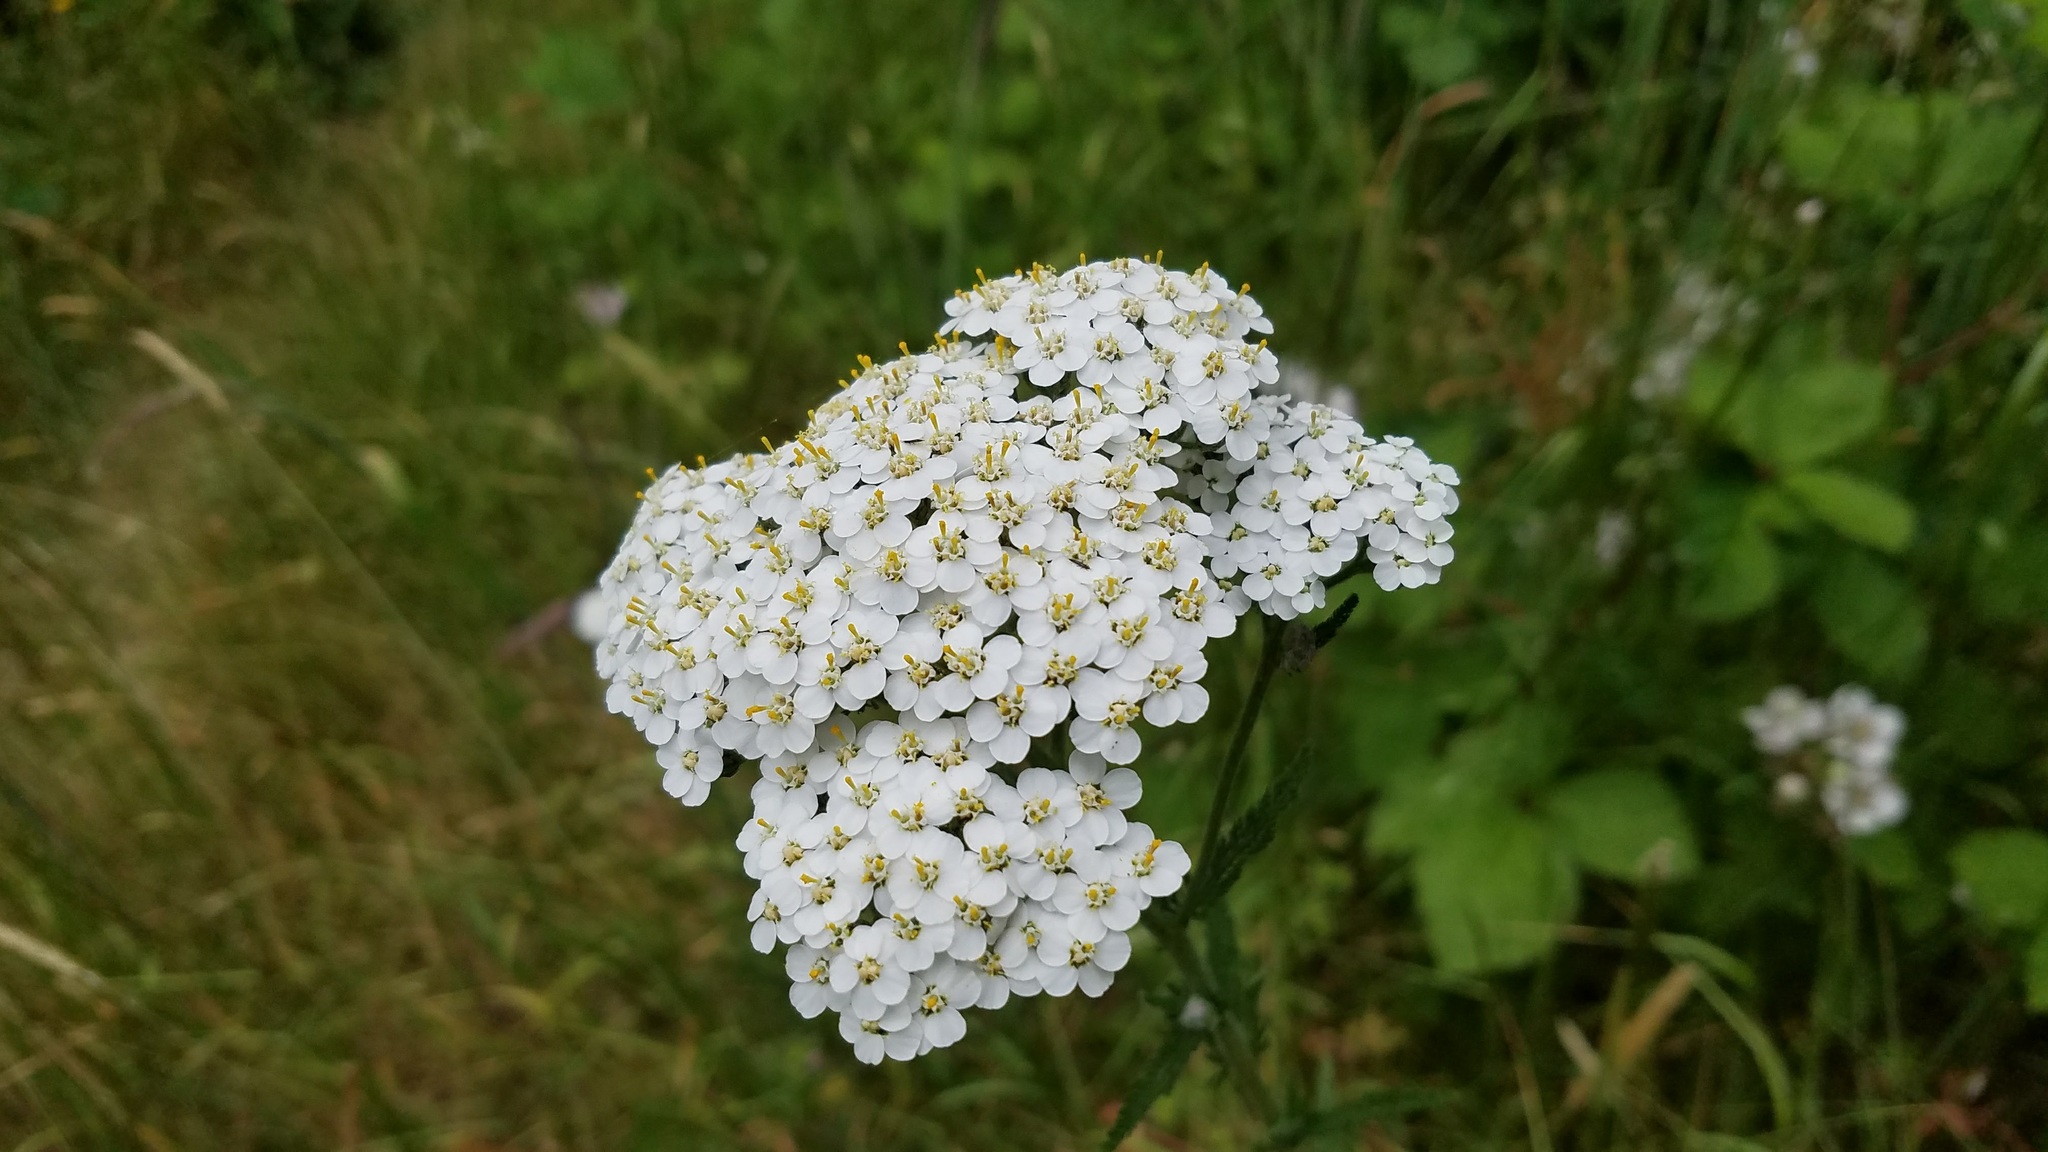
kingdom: Plantae
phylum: Tracheophyta
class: Magnoliopsida
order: Asterales
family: Asteraceae
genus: Achillea
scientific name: Achillea millefolium
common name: Yarrow
